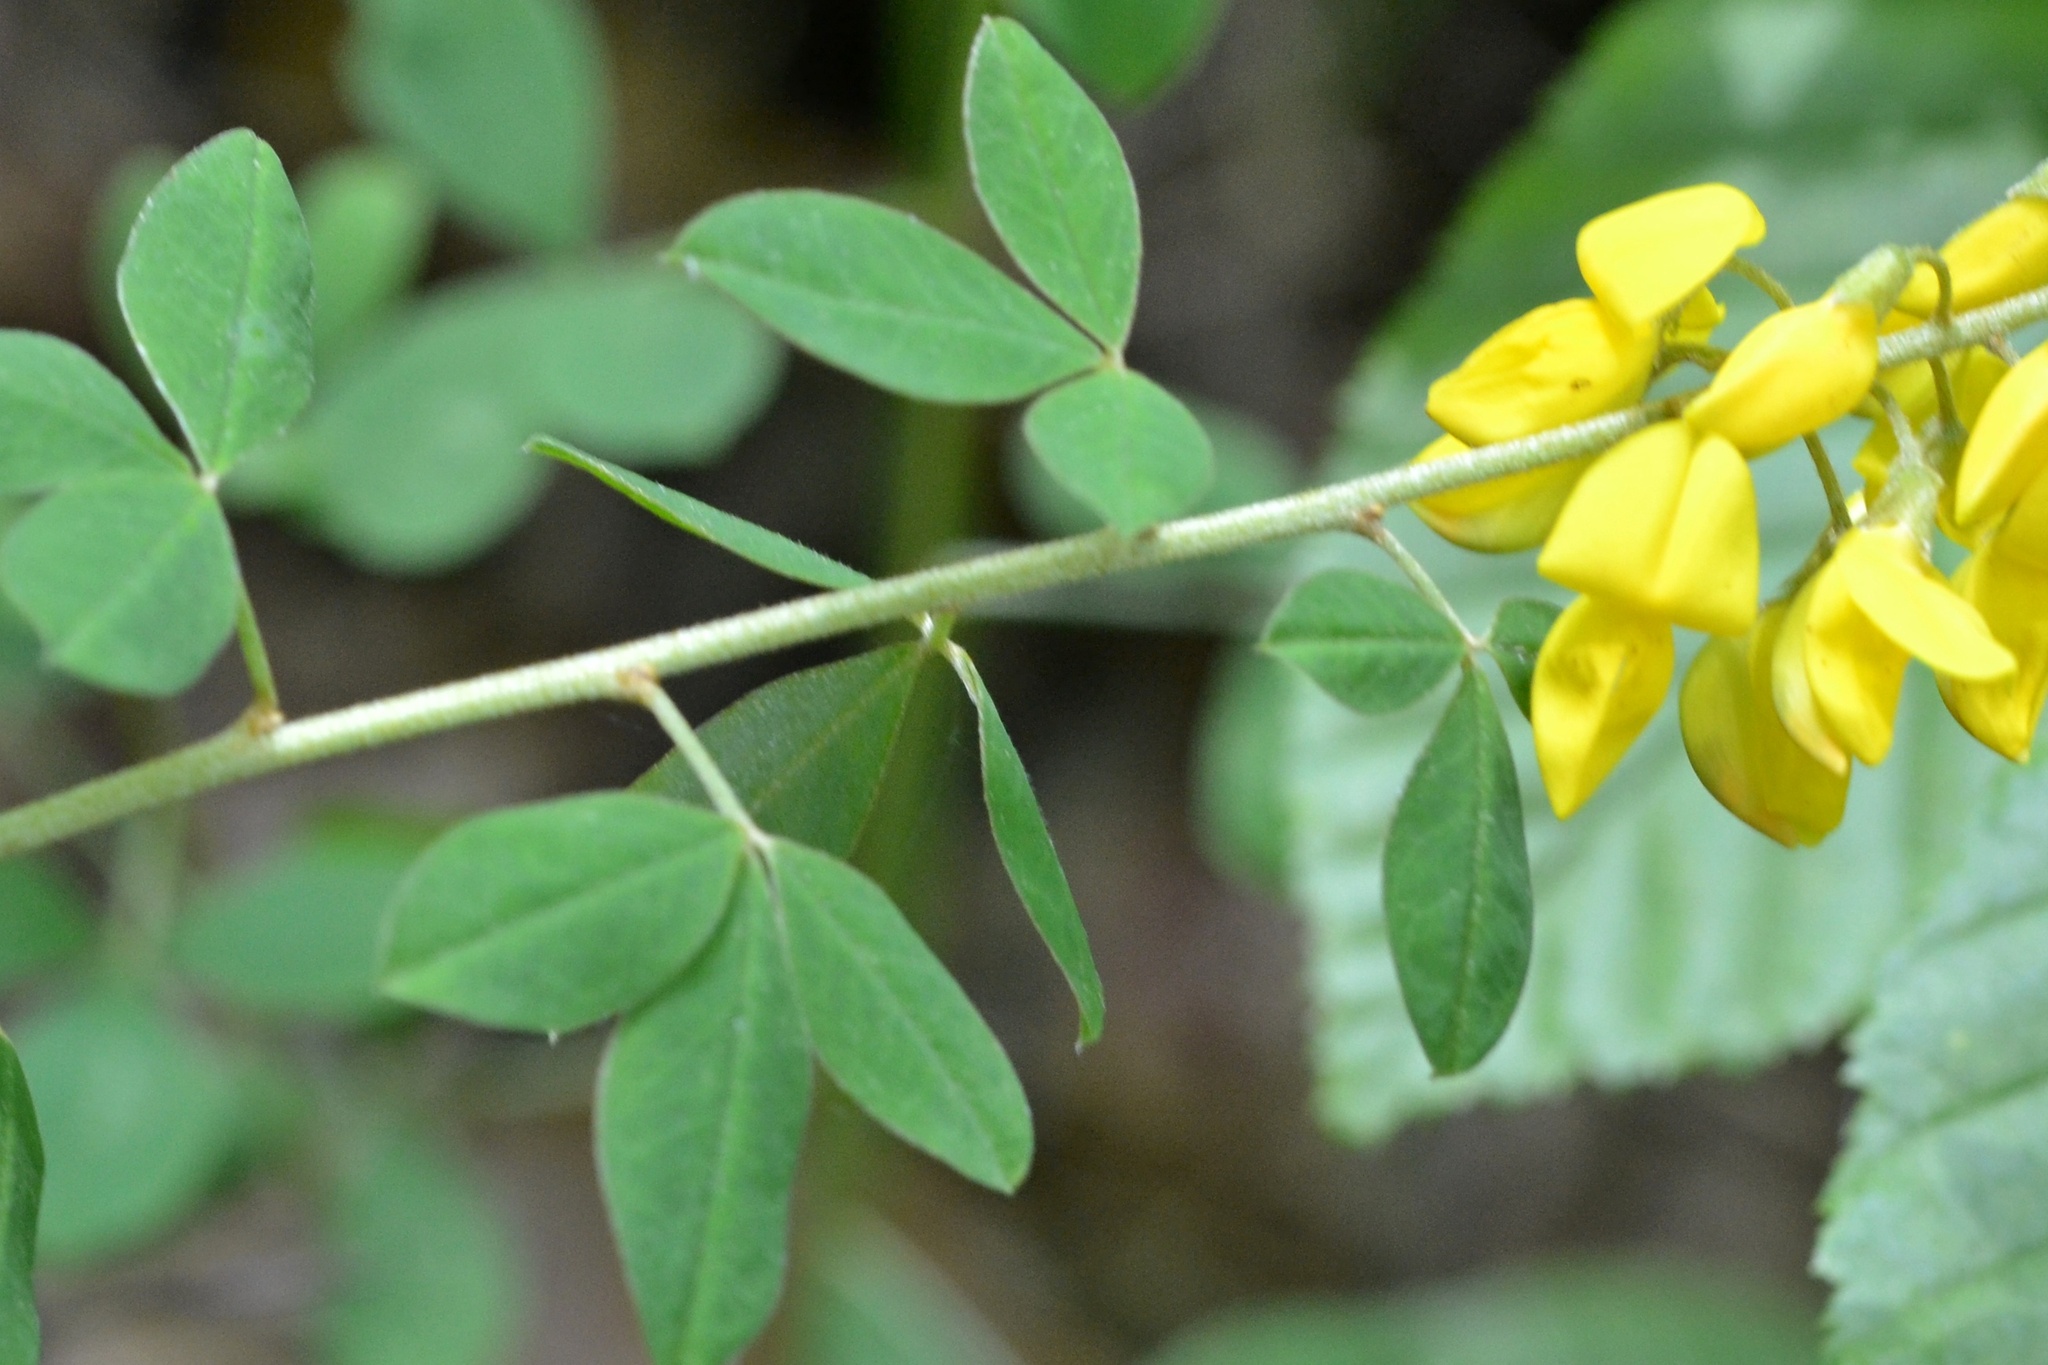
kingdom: Plantae
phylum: Tracheophyta
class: Magnoliopsida
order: Fabales
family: Fabaceae
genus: Cytisus
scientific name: Cytisus nigricans
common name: Black broom
